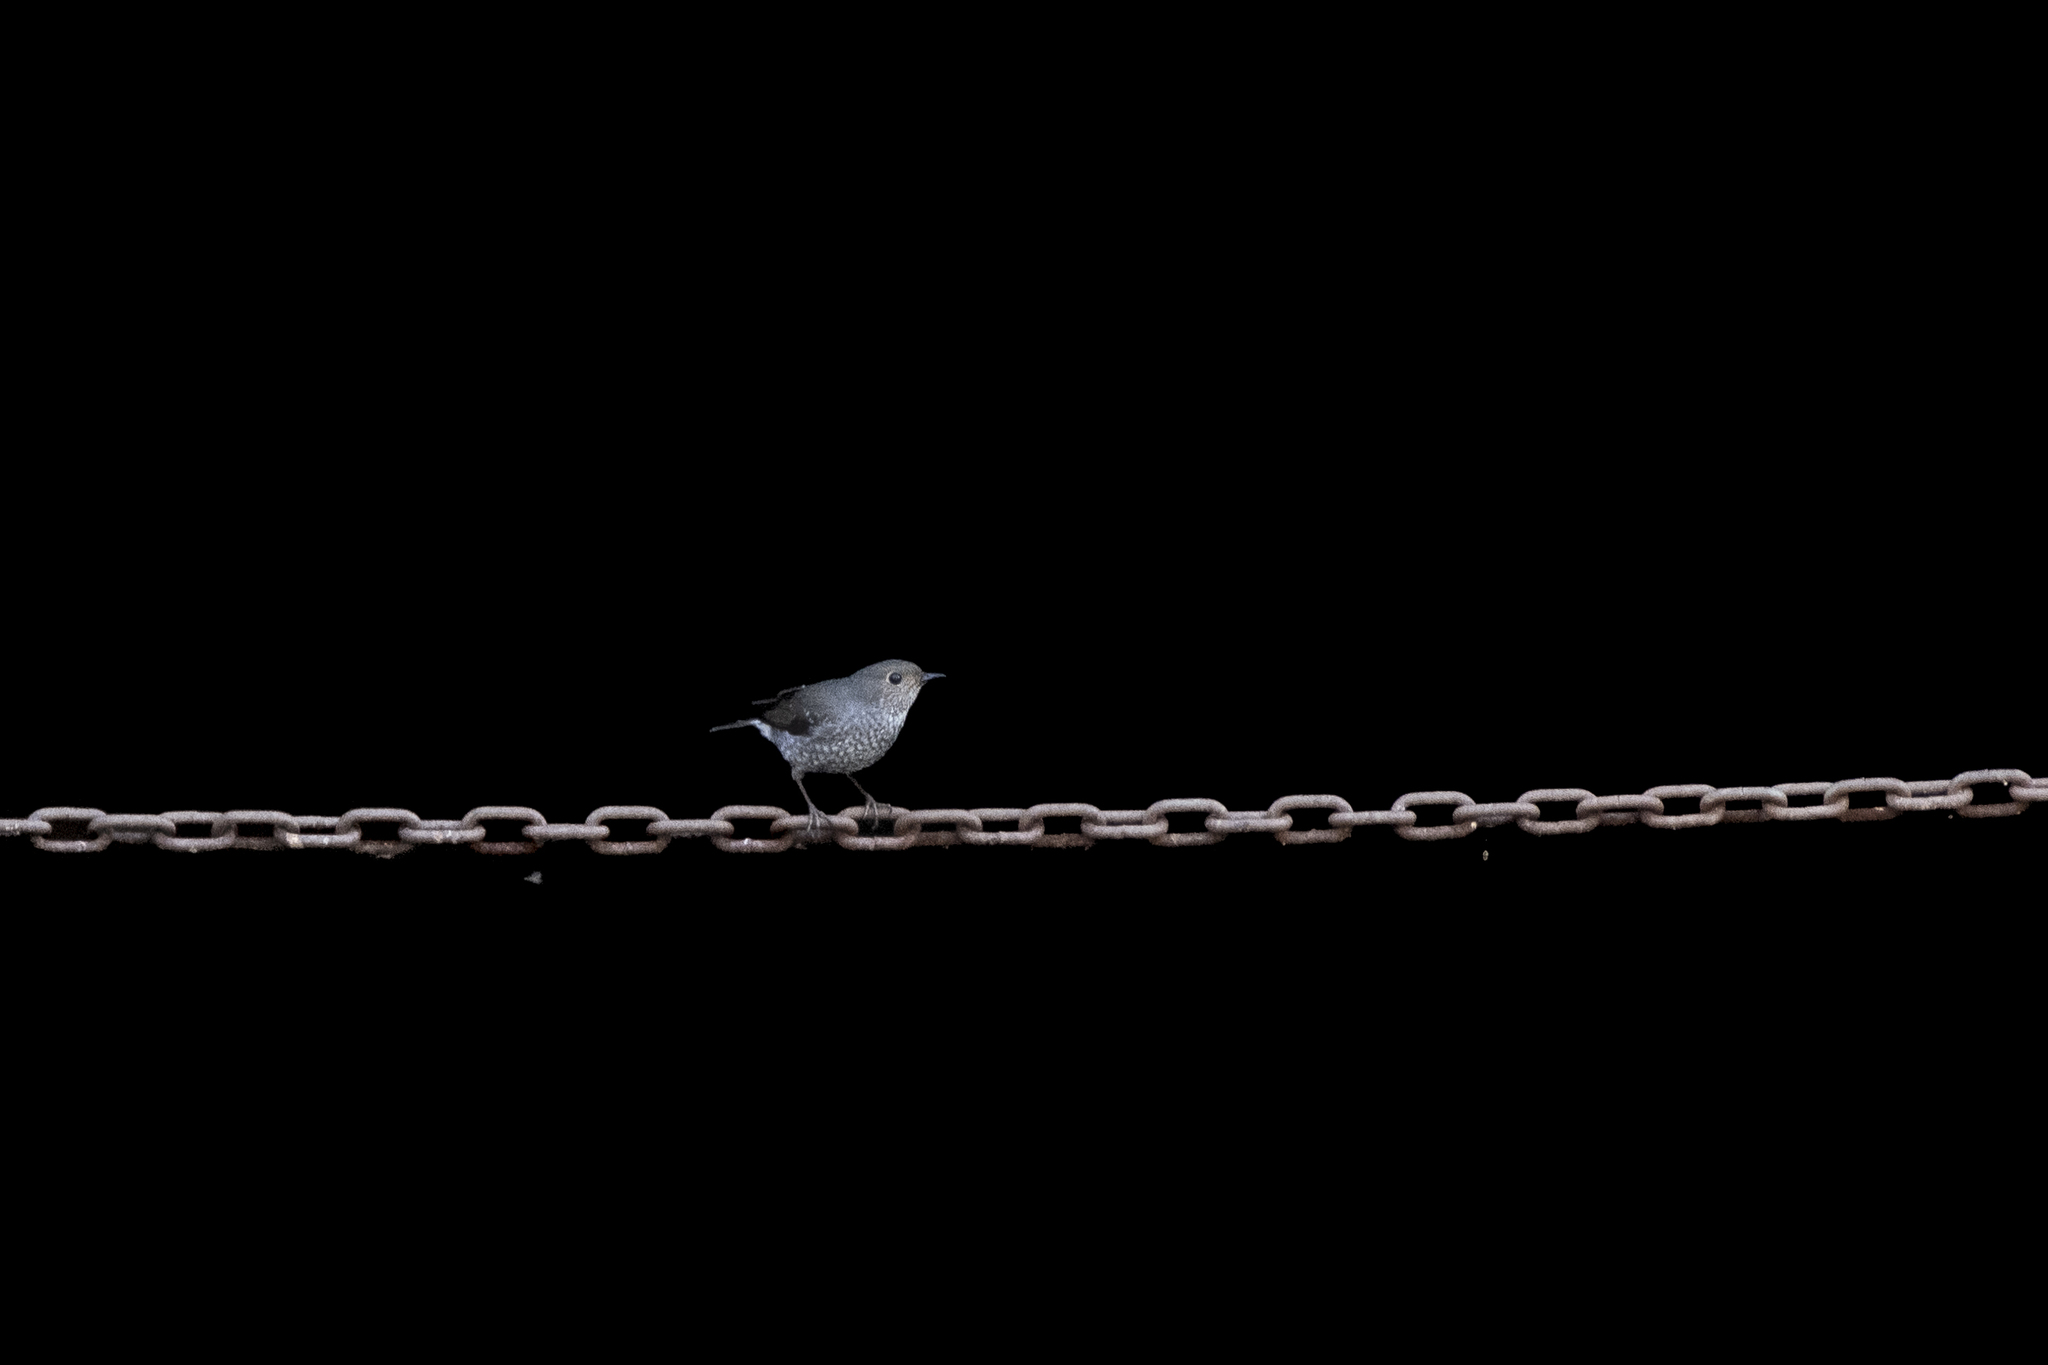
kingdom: Animalia
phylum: Chordata
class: Aves
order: Passeriformes
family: Muscicapidae
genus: Phoenicurus
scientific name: Phoenicurus fuliginosus
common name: Plumbeous water redstart
